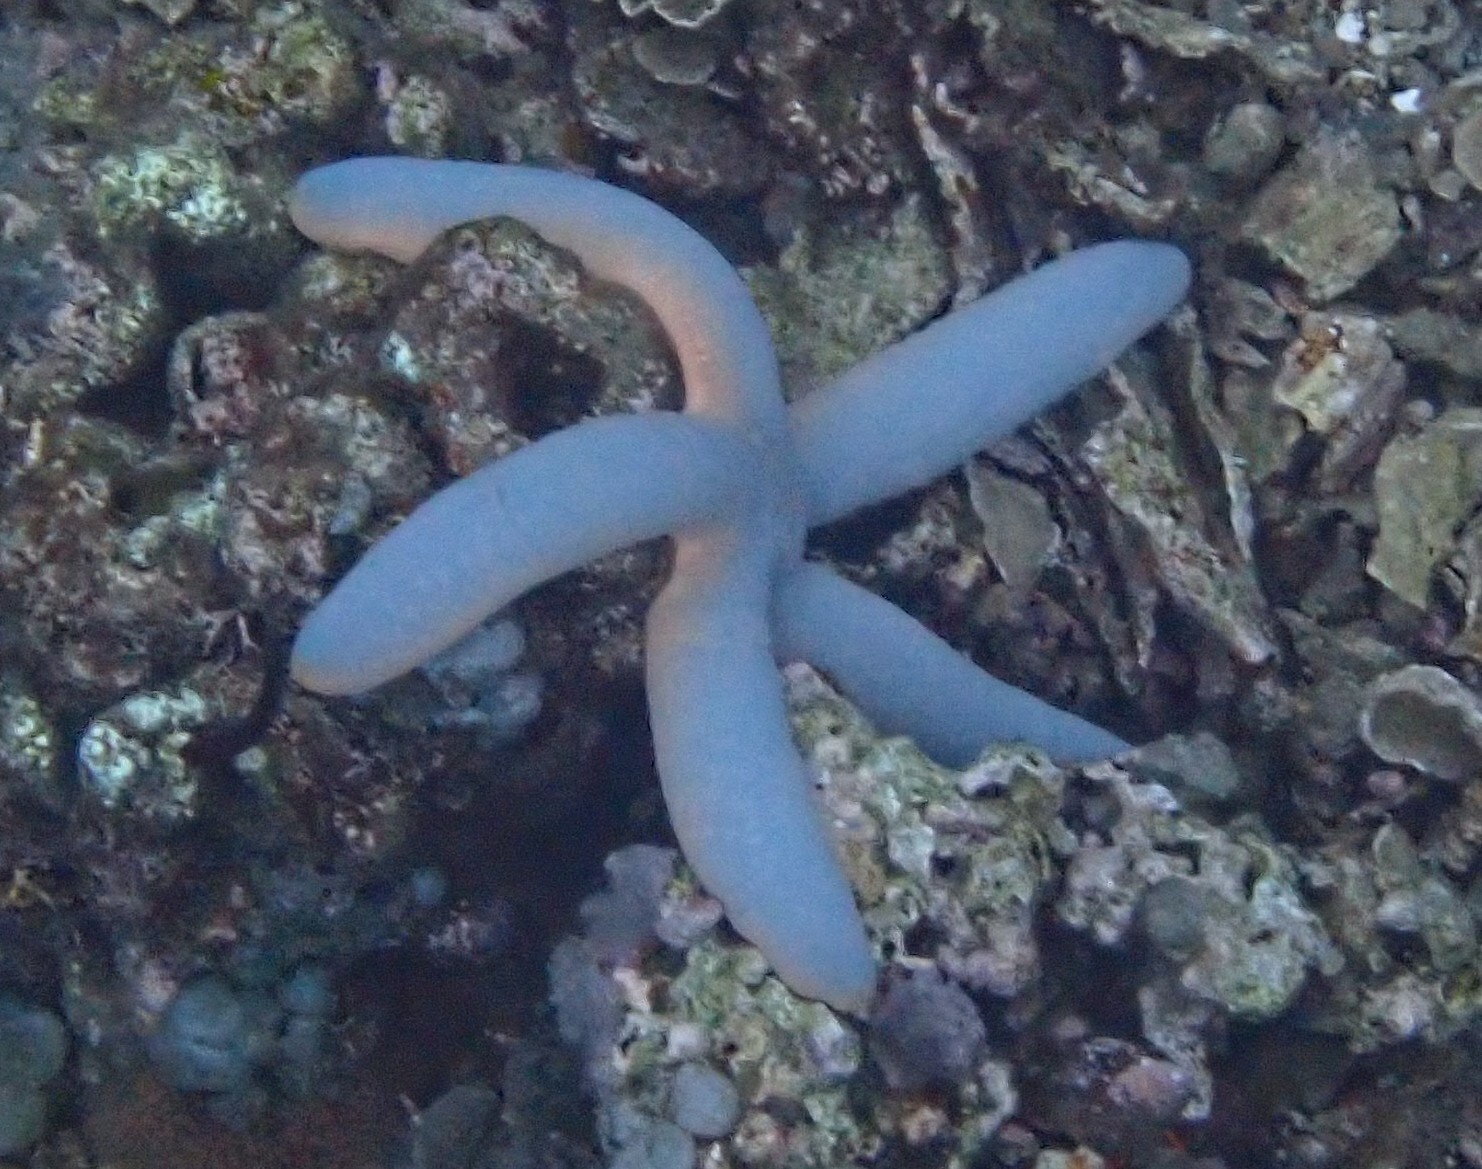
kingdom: Animalia
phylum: Echinodermata
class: Asteroidea
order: Valvatida
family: Ophidiasteridae
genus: Linckia
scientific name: Linckia laevigata
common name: Azure sea star
